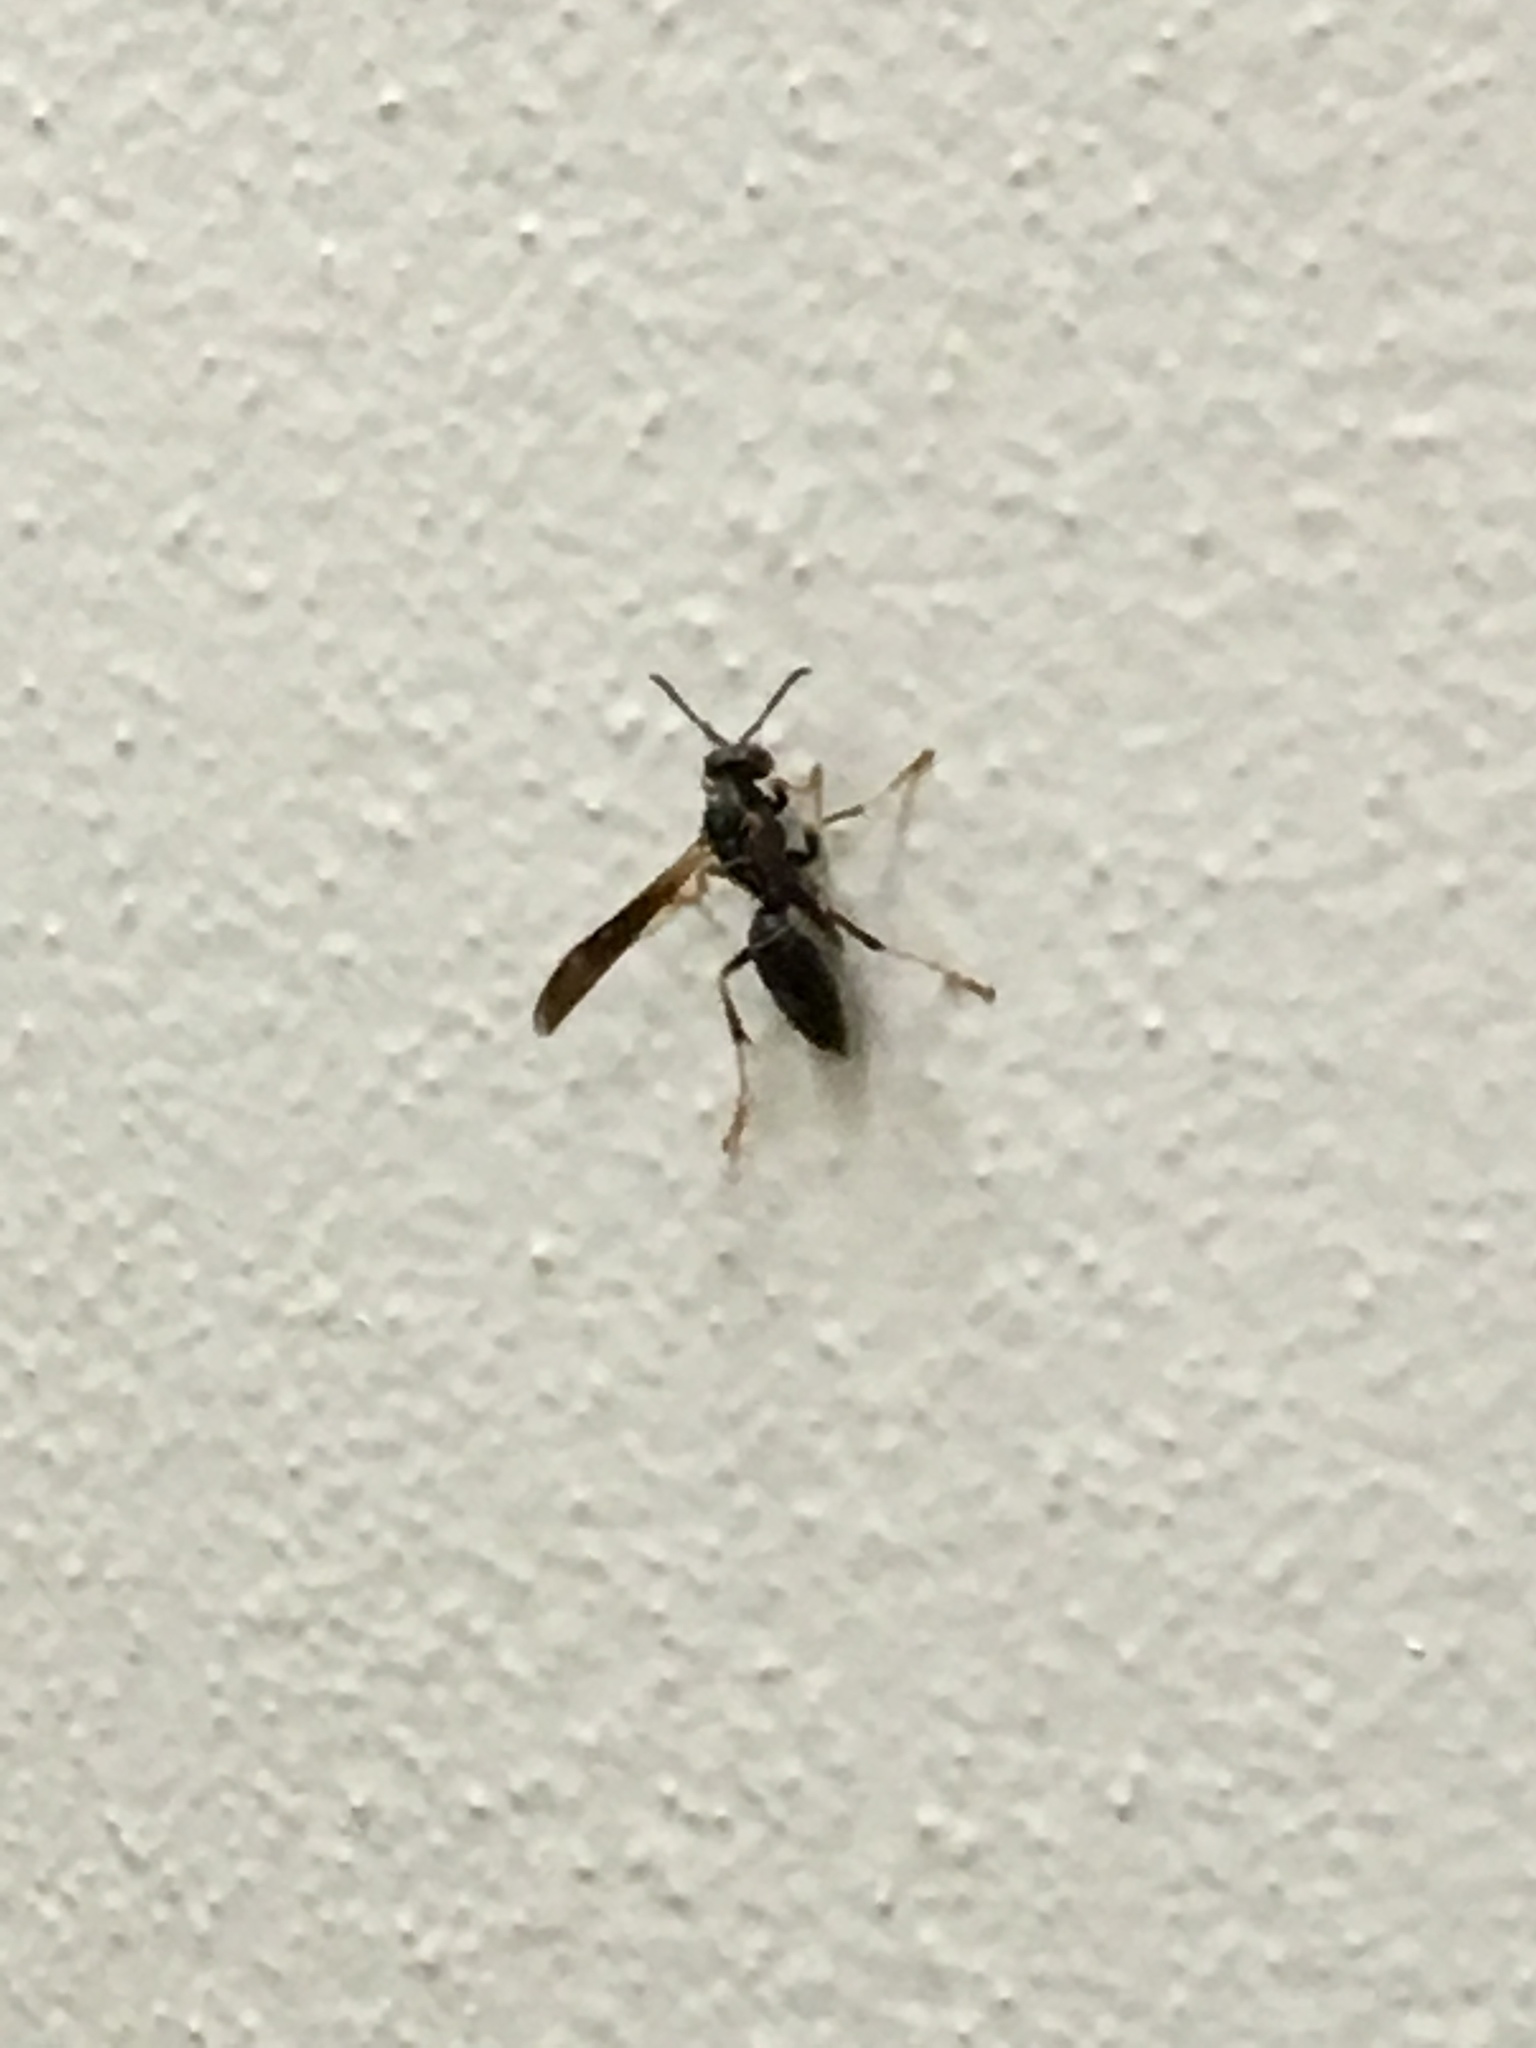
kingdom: Animalia
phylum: Arthropoda
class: Insecta
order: Hymenoptera
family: Vespidae
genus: Fuscopolistes
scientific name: Fuscopolistes
